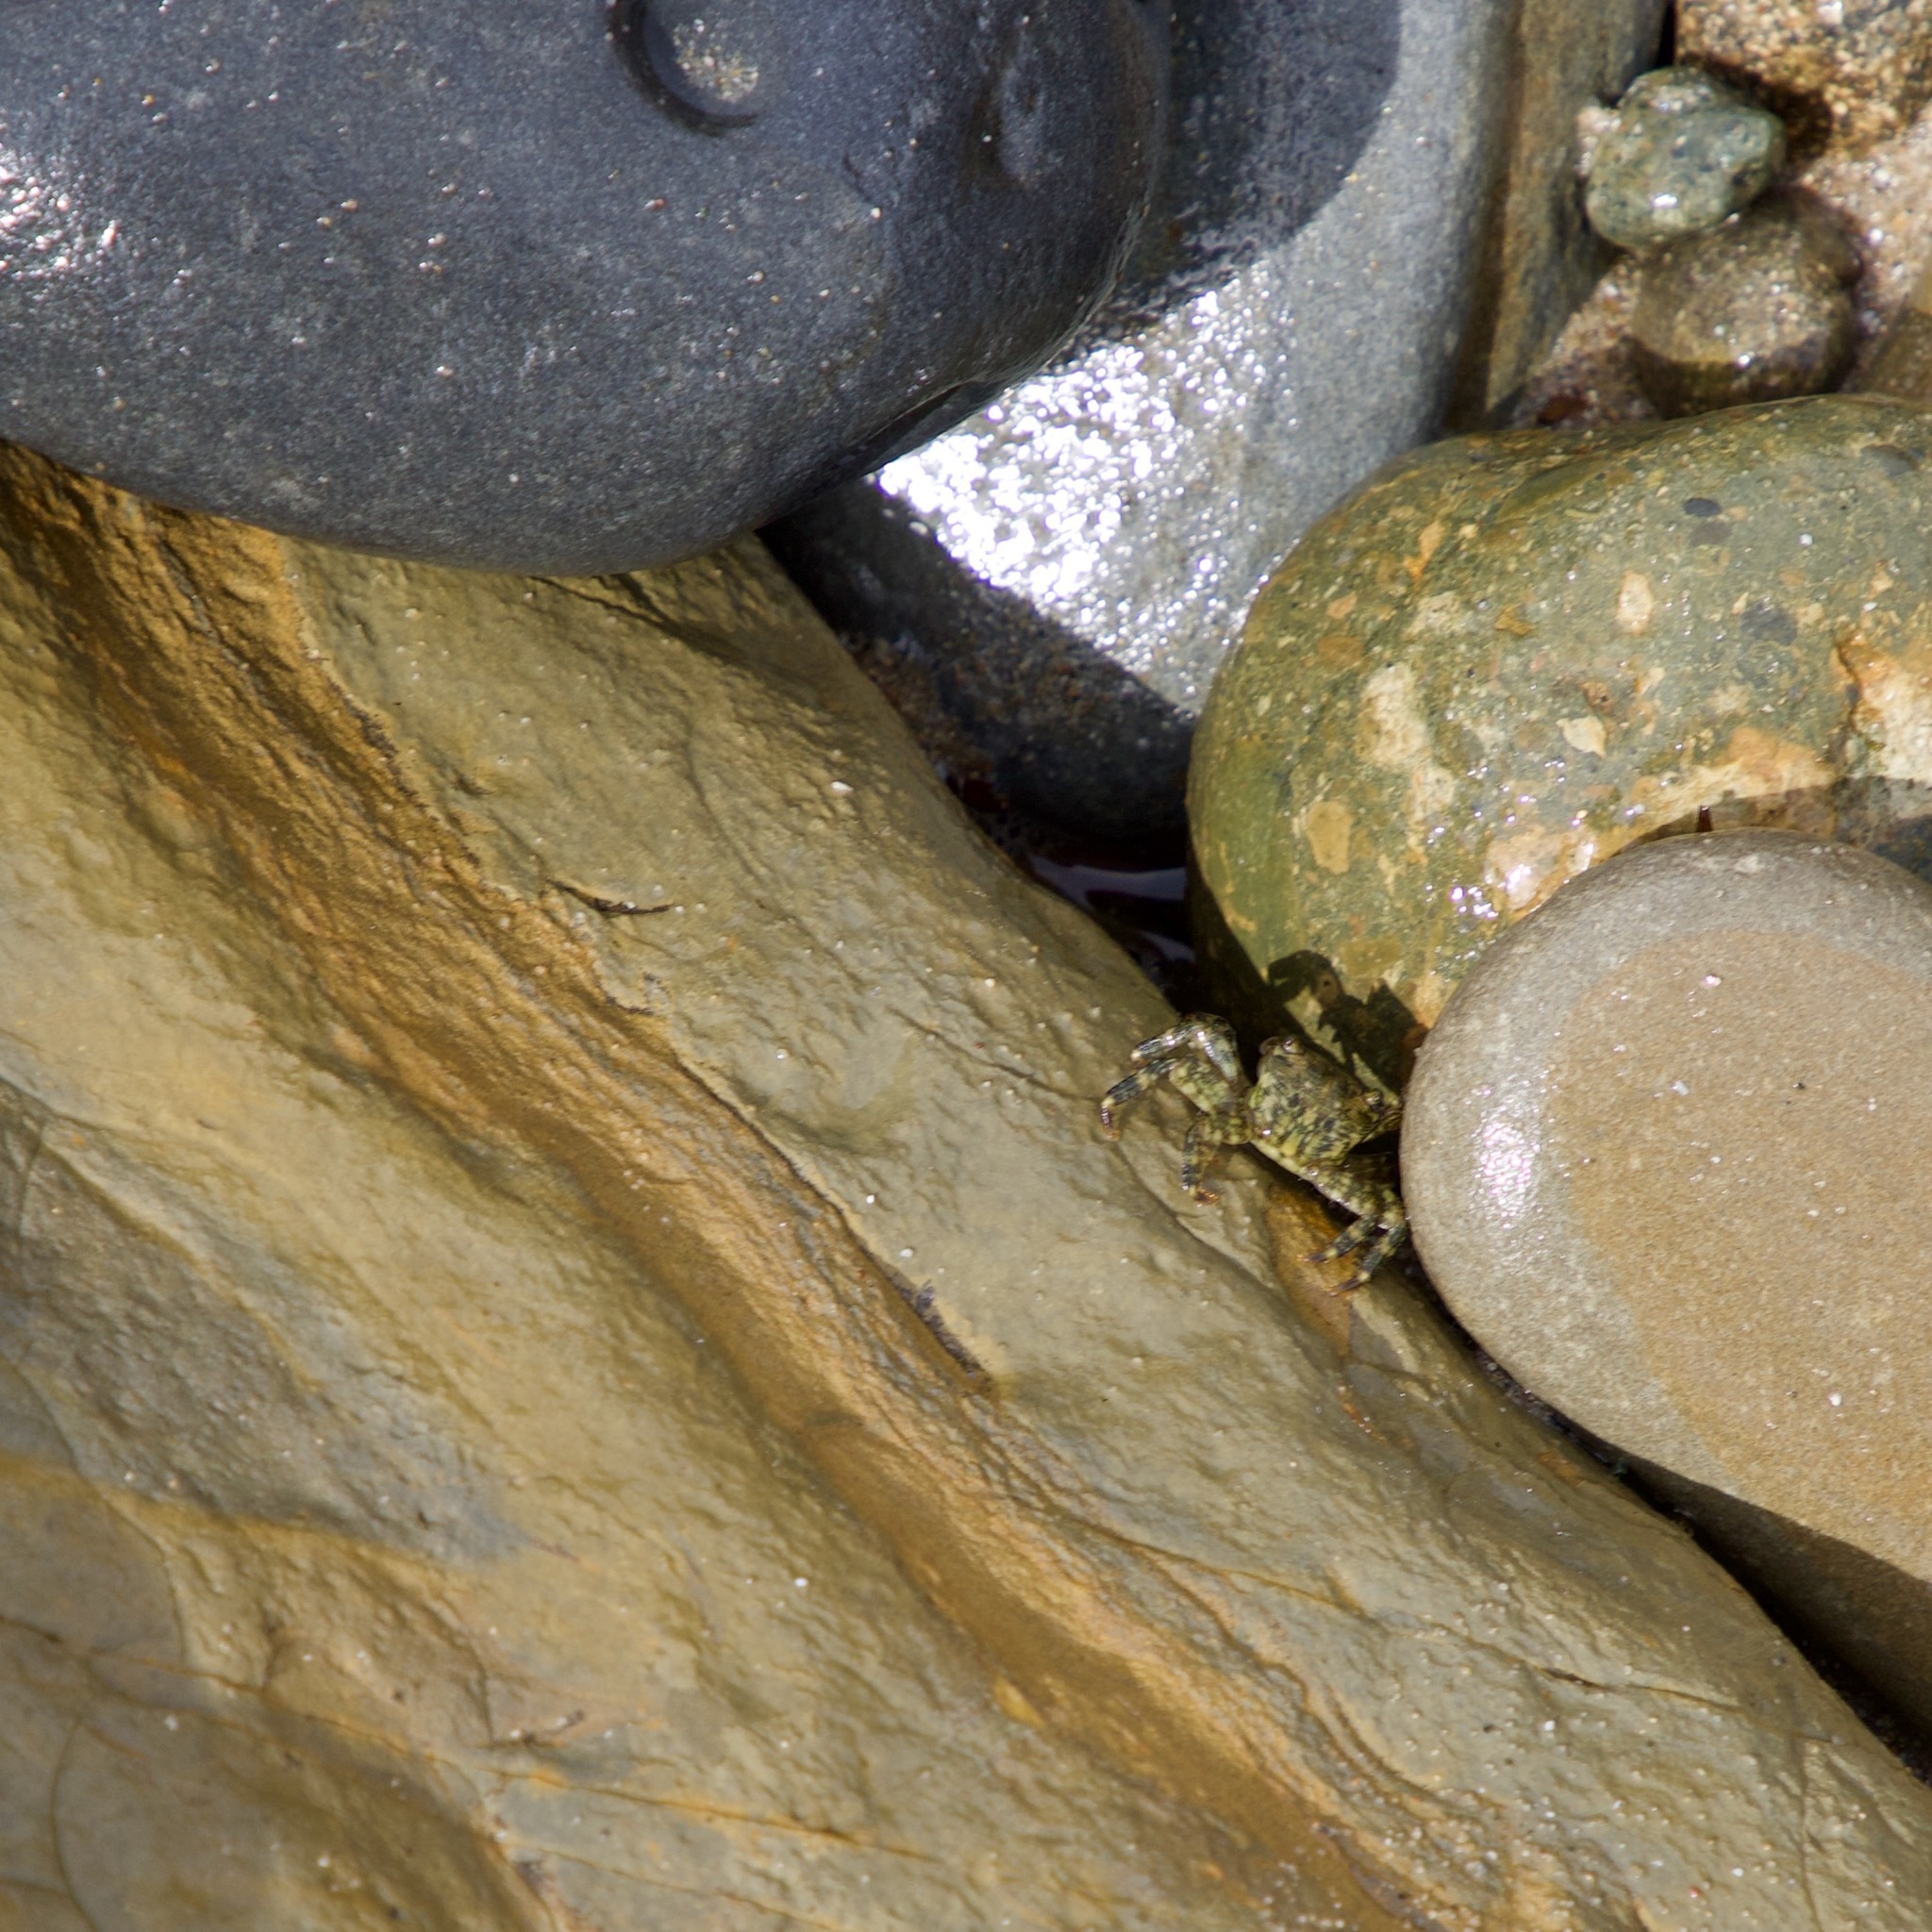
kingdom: Animalia
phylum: Arthropoda
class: Malacostraca
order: Decapoda
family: Grapsidae
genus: Pachygrapsus
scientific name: Pachygrapsus crassipes
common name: Striped shore crab
